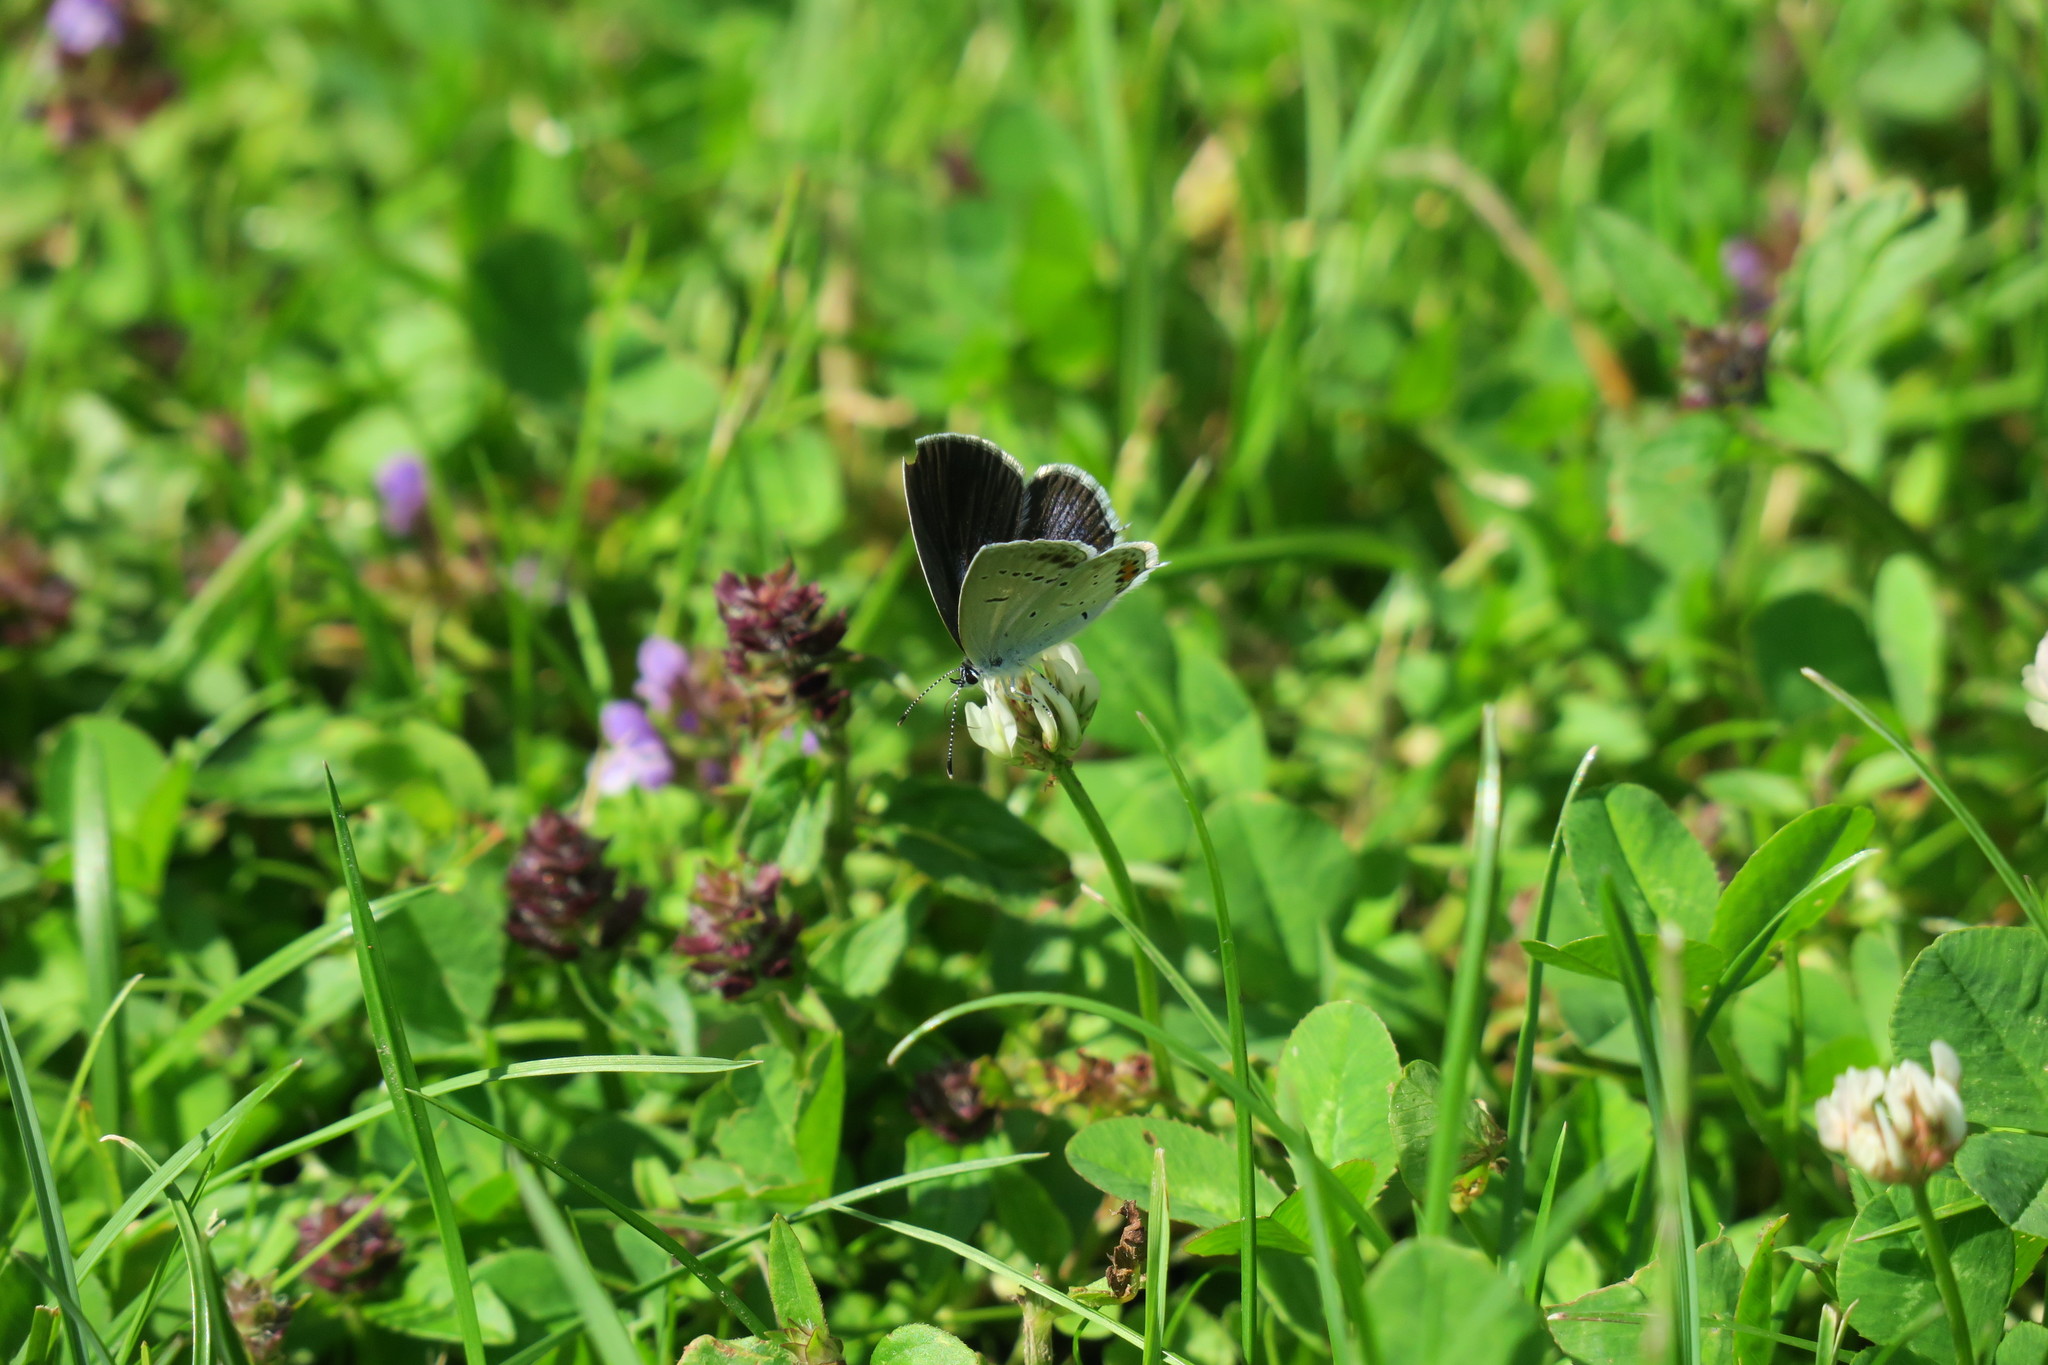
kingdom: Animalia
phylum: Arthropoda
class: Insecta
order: Lepidoptera
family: Lycaenidae
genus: Elkalyce
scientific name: Elkalyce argiades
